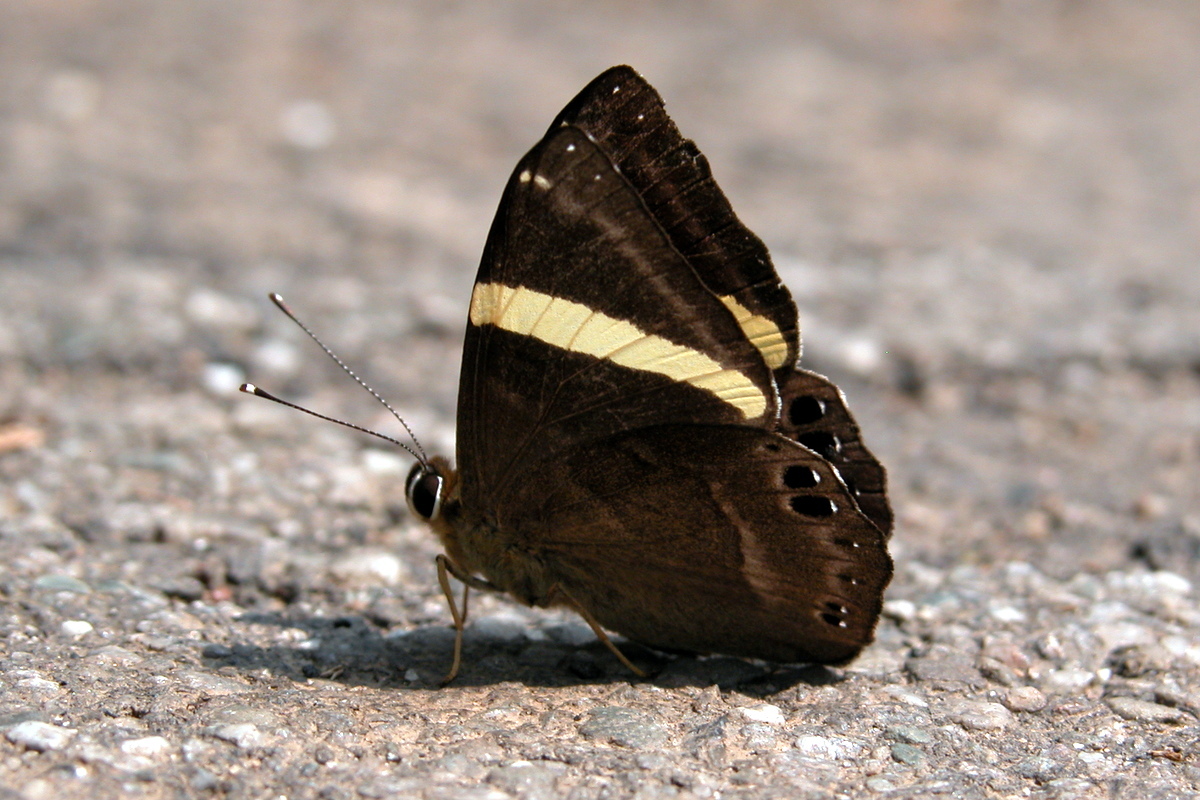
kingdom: Animalia
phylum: Arthropoda
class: Insecta
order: Lepidoptera
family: Lycaenidae
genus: Abisara
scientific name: Abisara fylla
